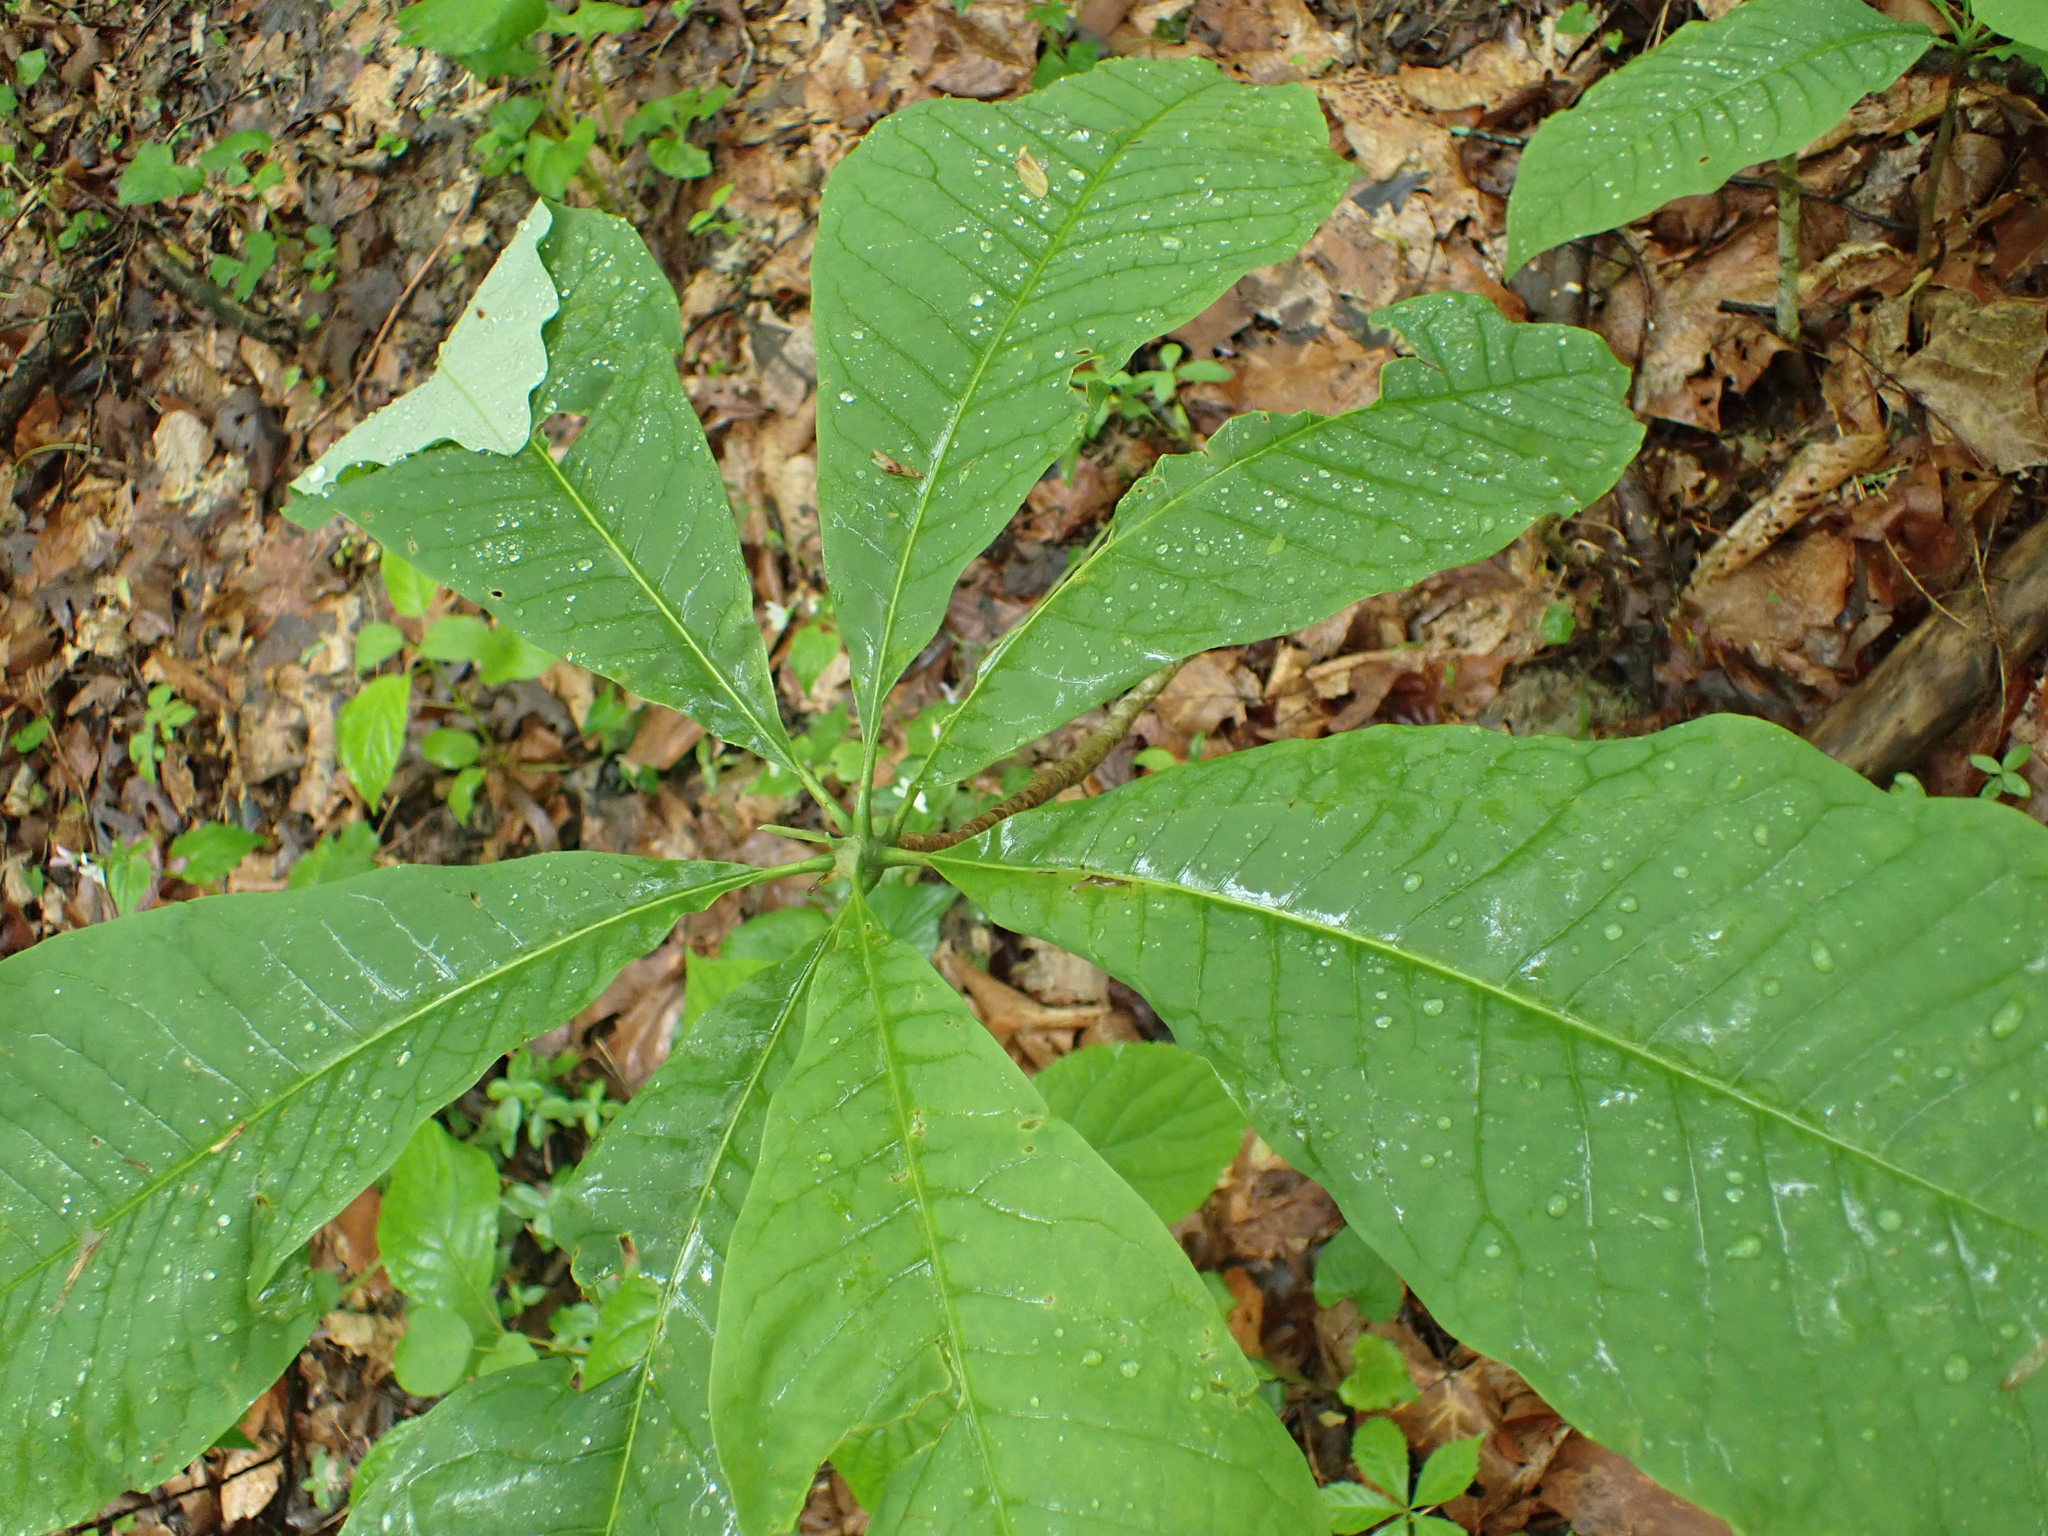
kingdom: Plantae
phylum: Tracheophyta
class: Magnoliopsida
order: Magnoliales
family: Magnoliaceae
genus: Magnolia
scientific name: Magnolia tripetala
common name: Umbrella magnolia
